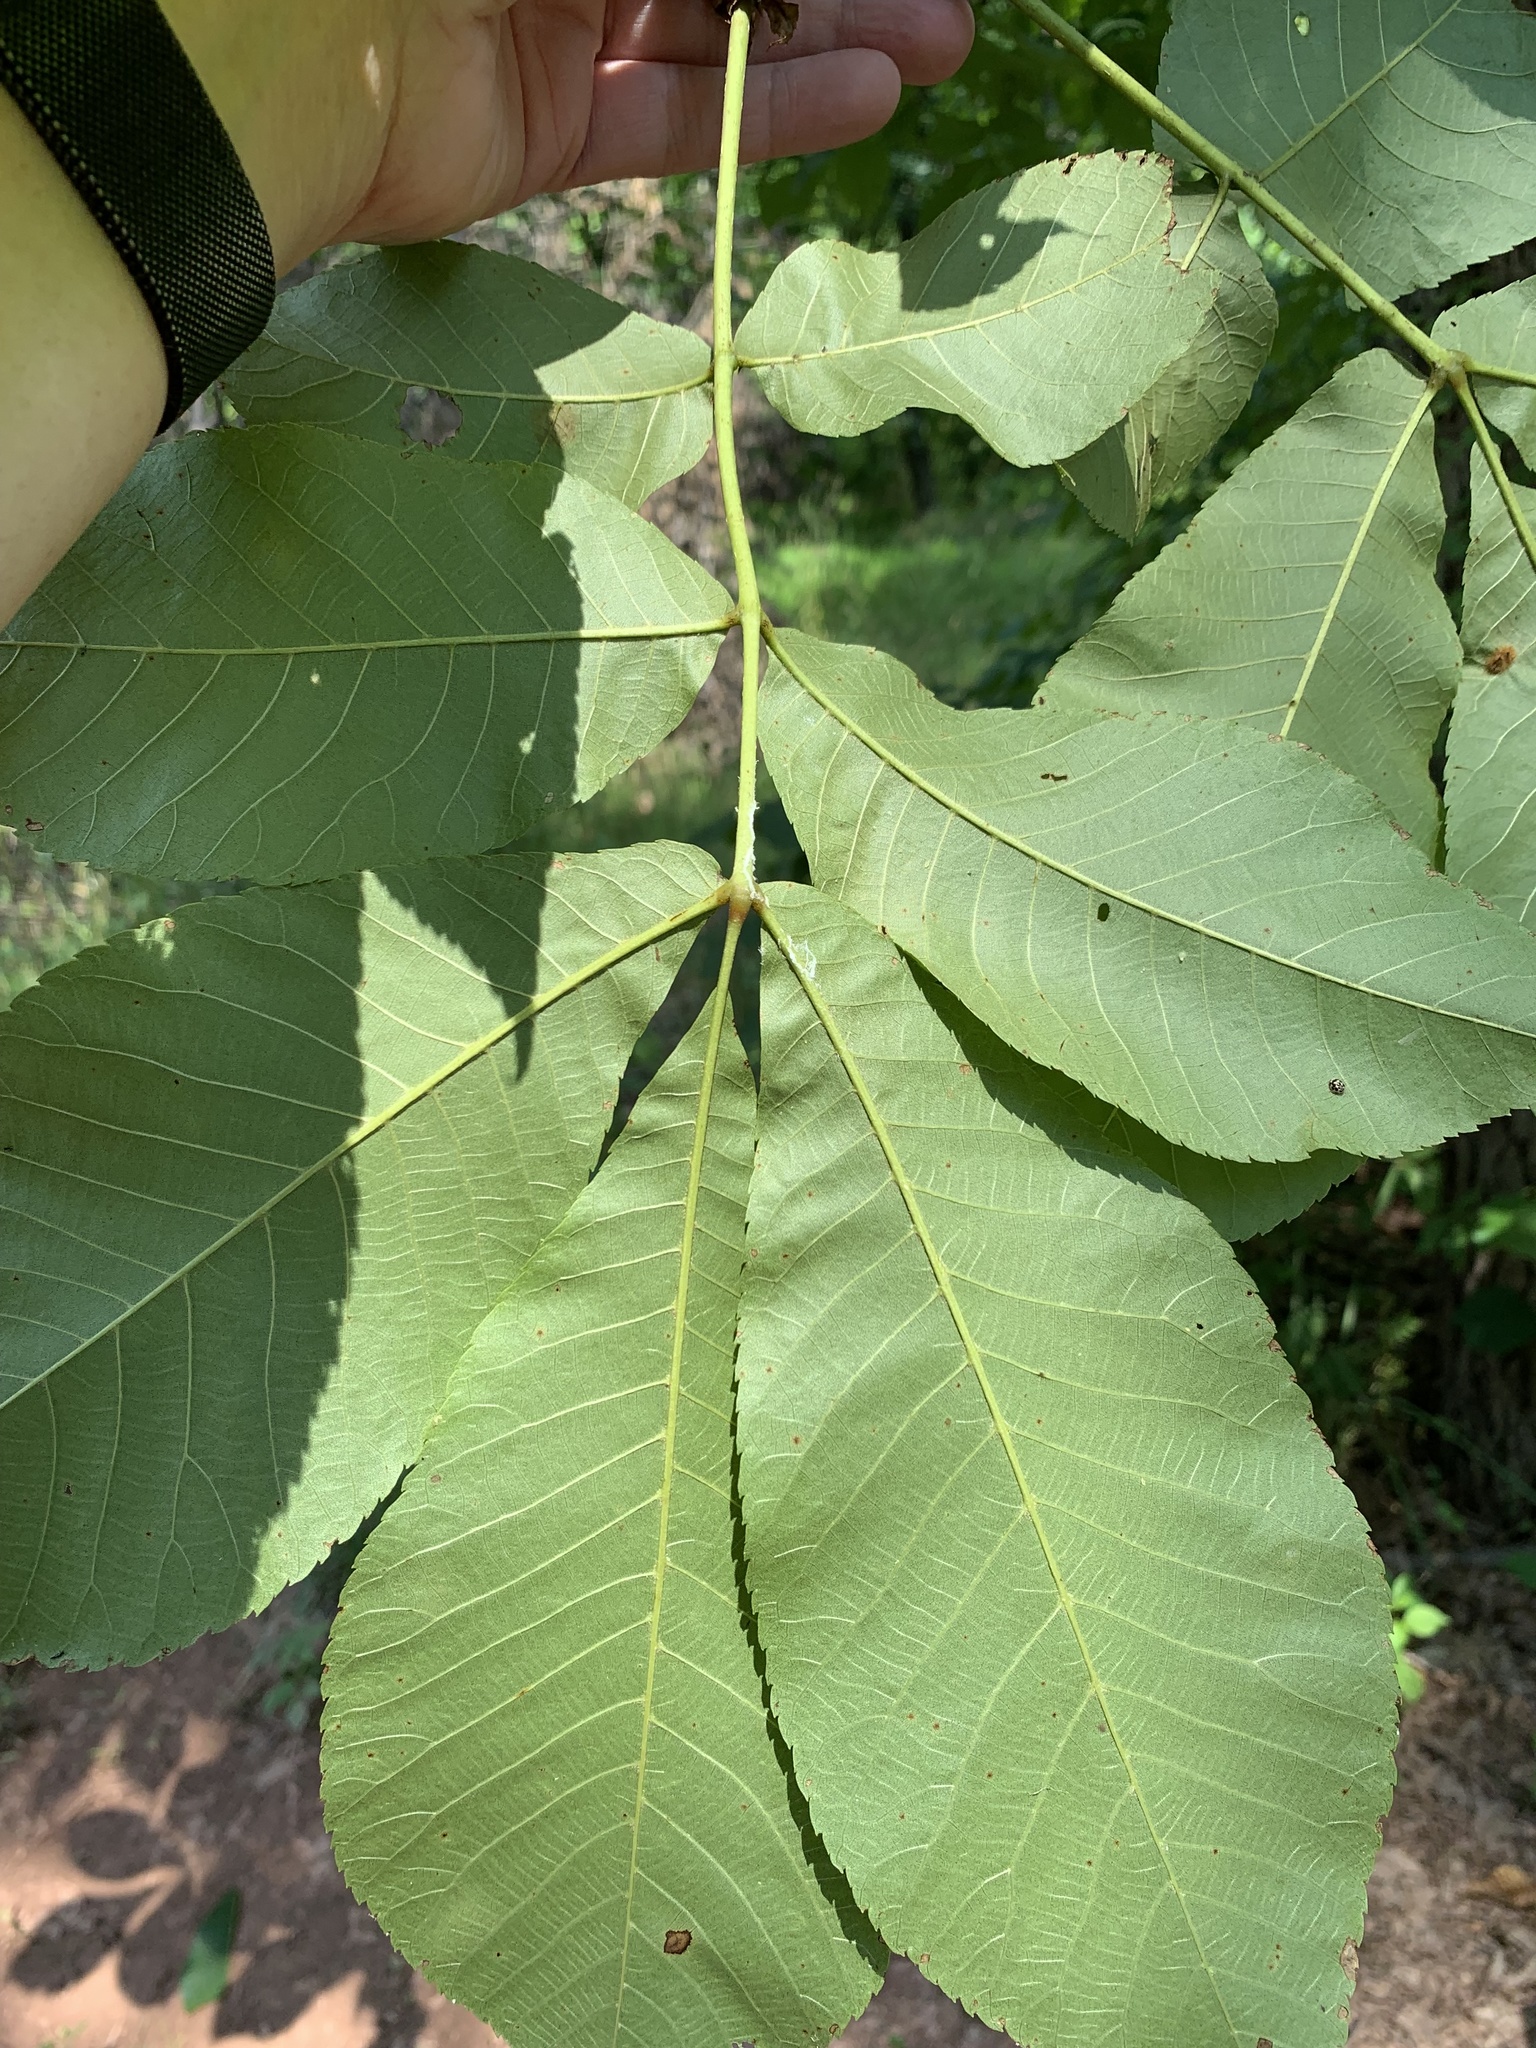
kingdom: Plantae
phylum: Tracheophyta
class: Magnoliopsida
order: Fagales
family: Juglandaceae
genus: Carya
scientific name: Carya ovata
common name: Shagbark hickory
